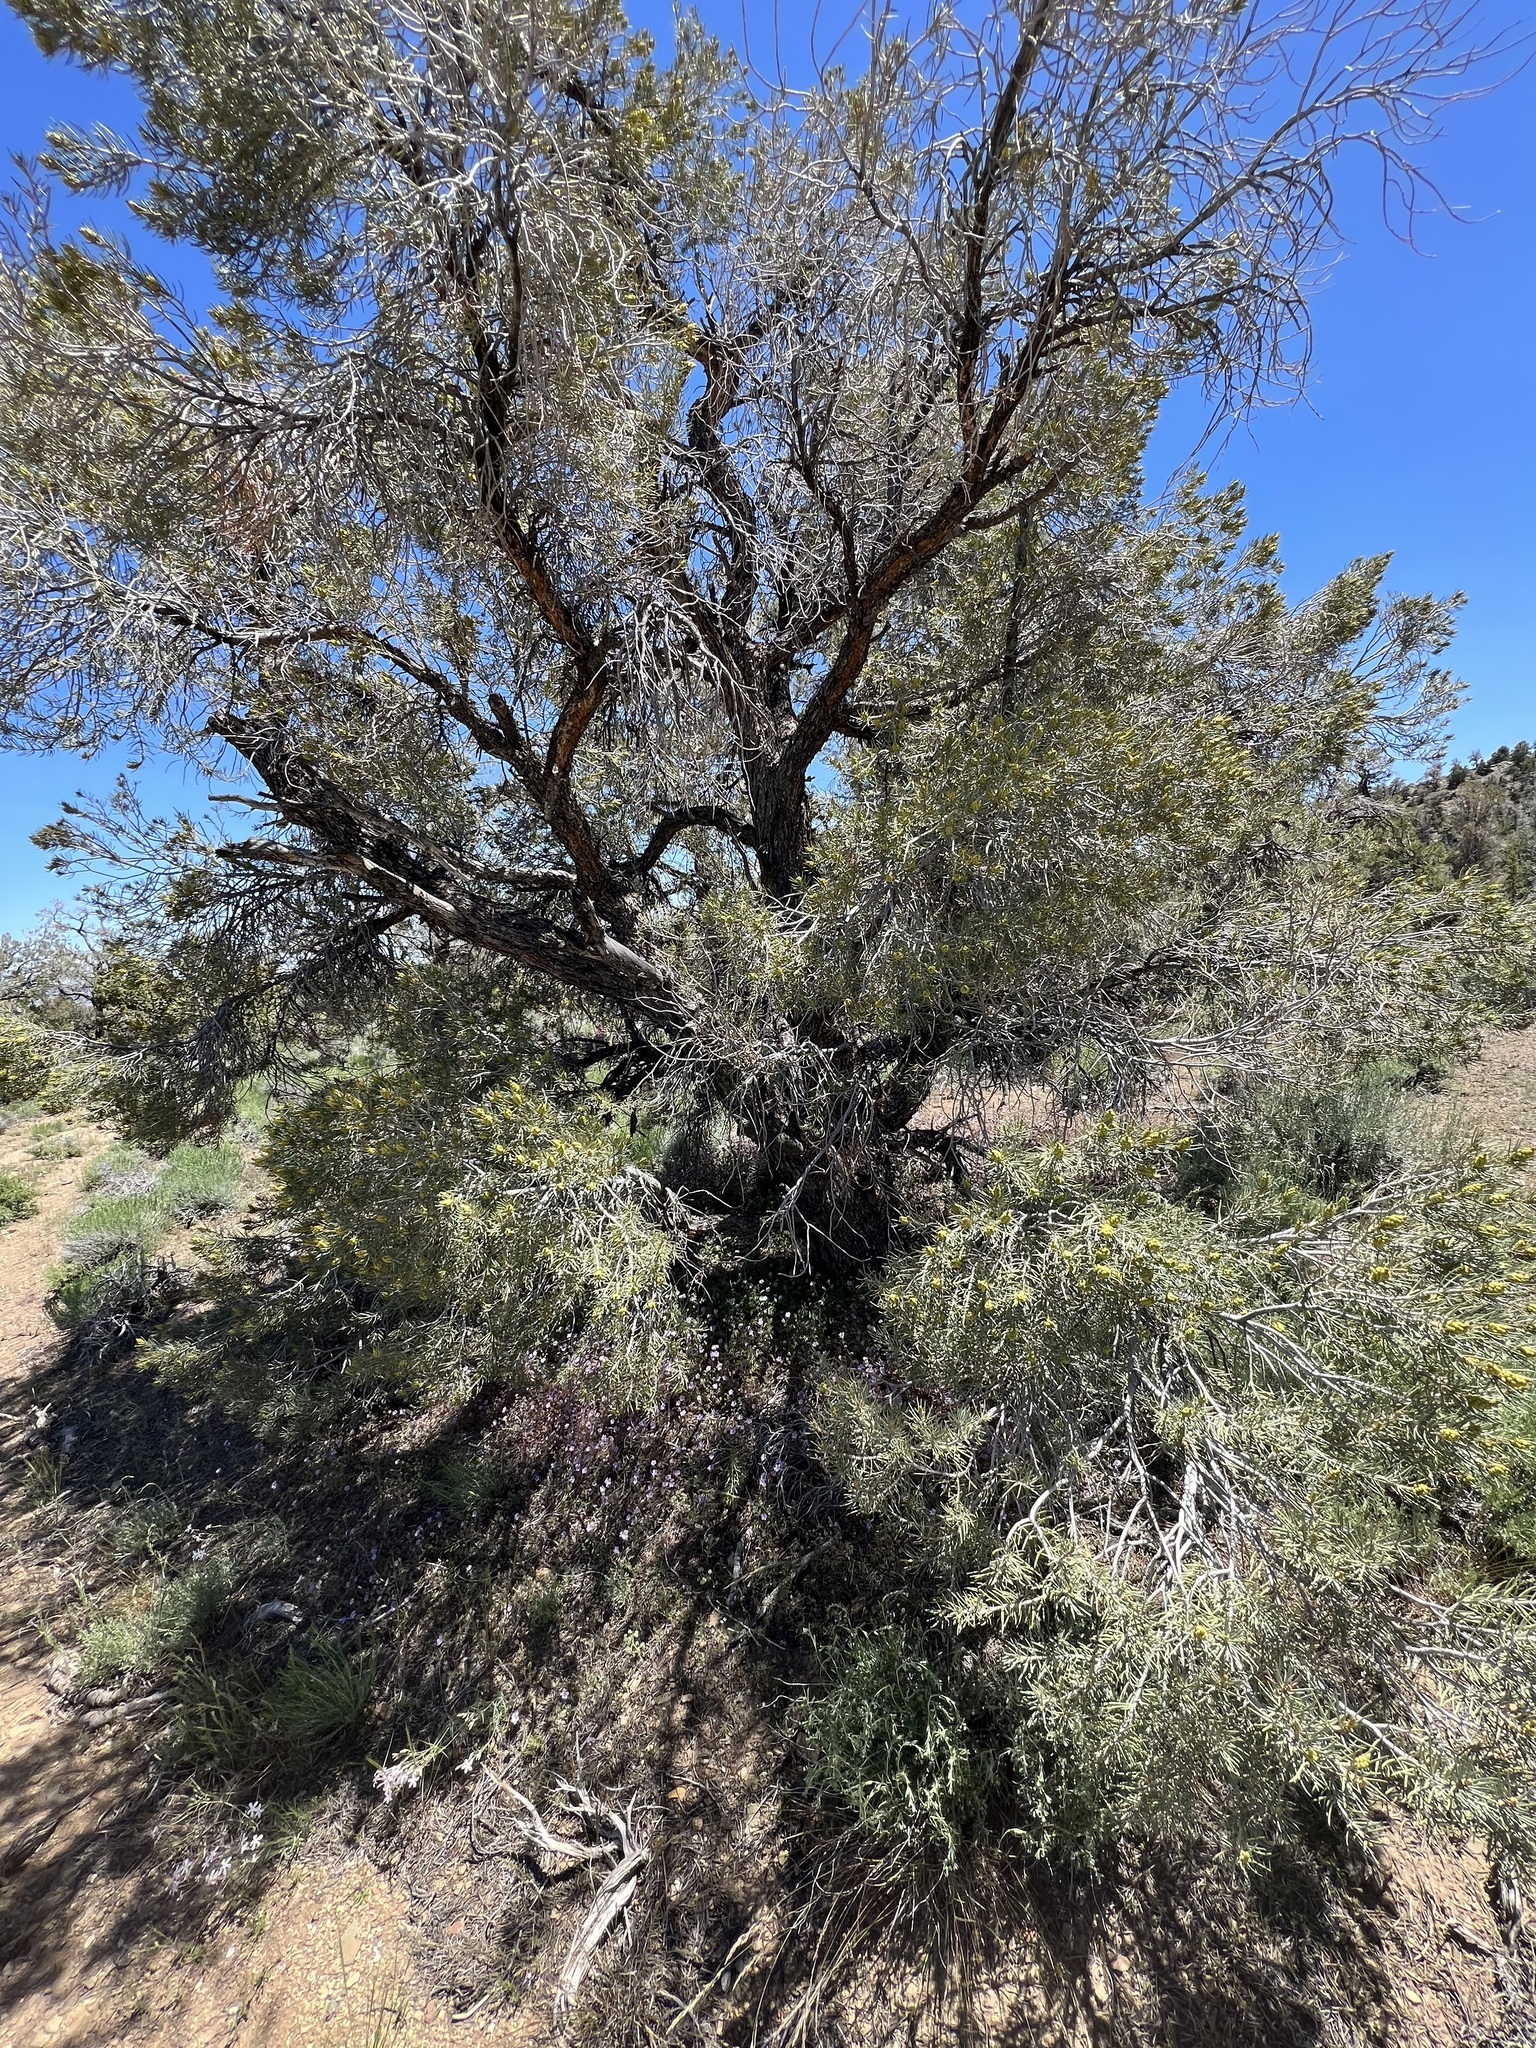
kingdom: Plantae
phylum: Tracheophyta
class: Pinopsida
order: Pinales
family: Pinaceae
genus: Pinus
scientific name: Pinus monophylla
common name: One-leaved nut pine
